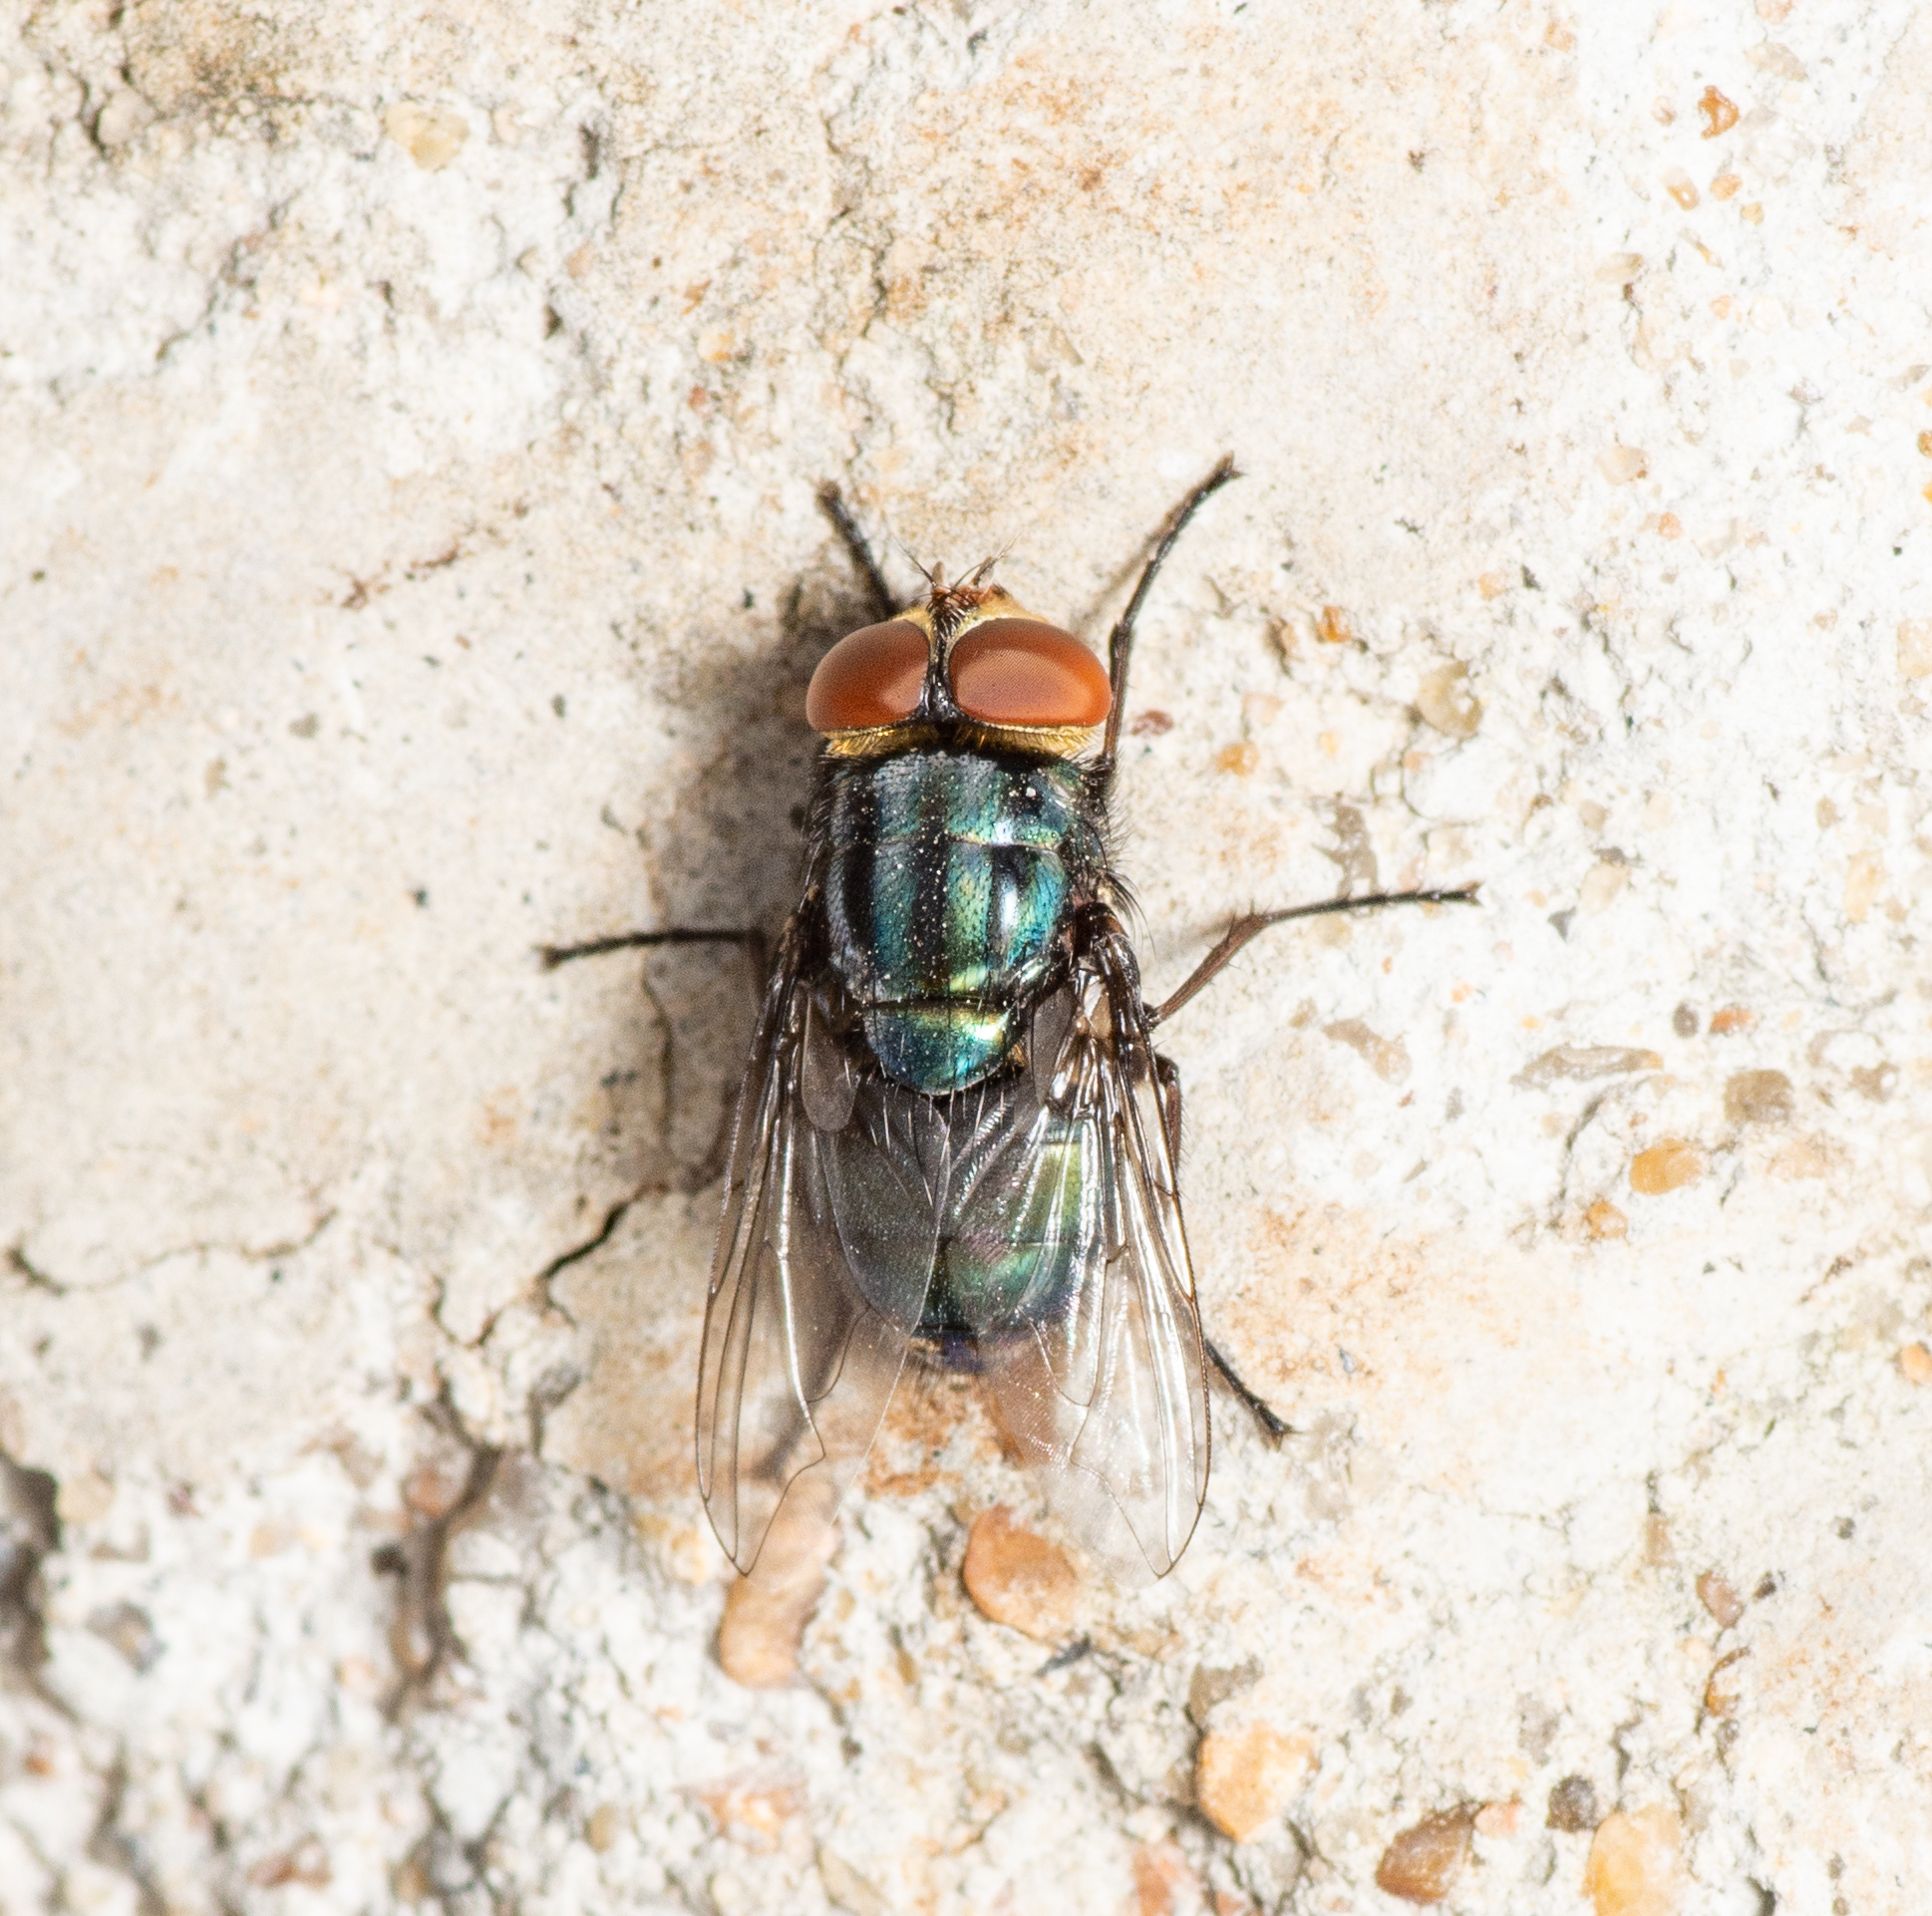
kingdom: Animalia
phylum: Arthropoda
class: Insecta
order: Diptera
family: Calliphoridae
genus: Cochliomyia
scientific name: Cochliomyia macellaria
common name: Secondary screwworm
